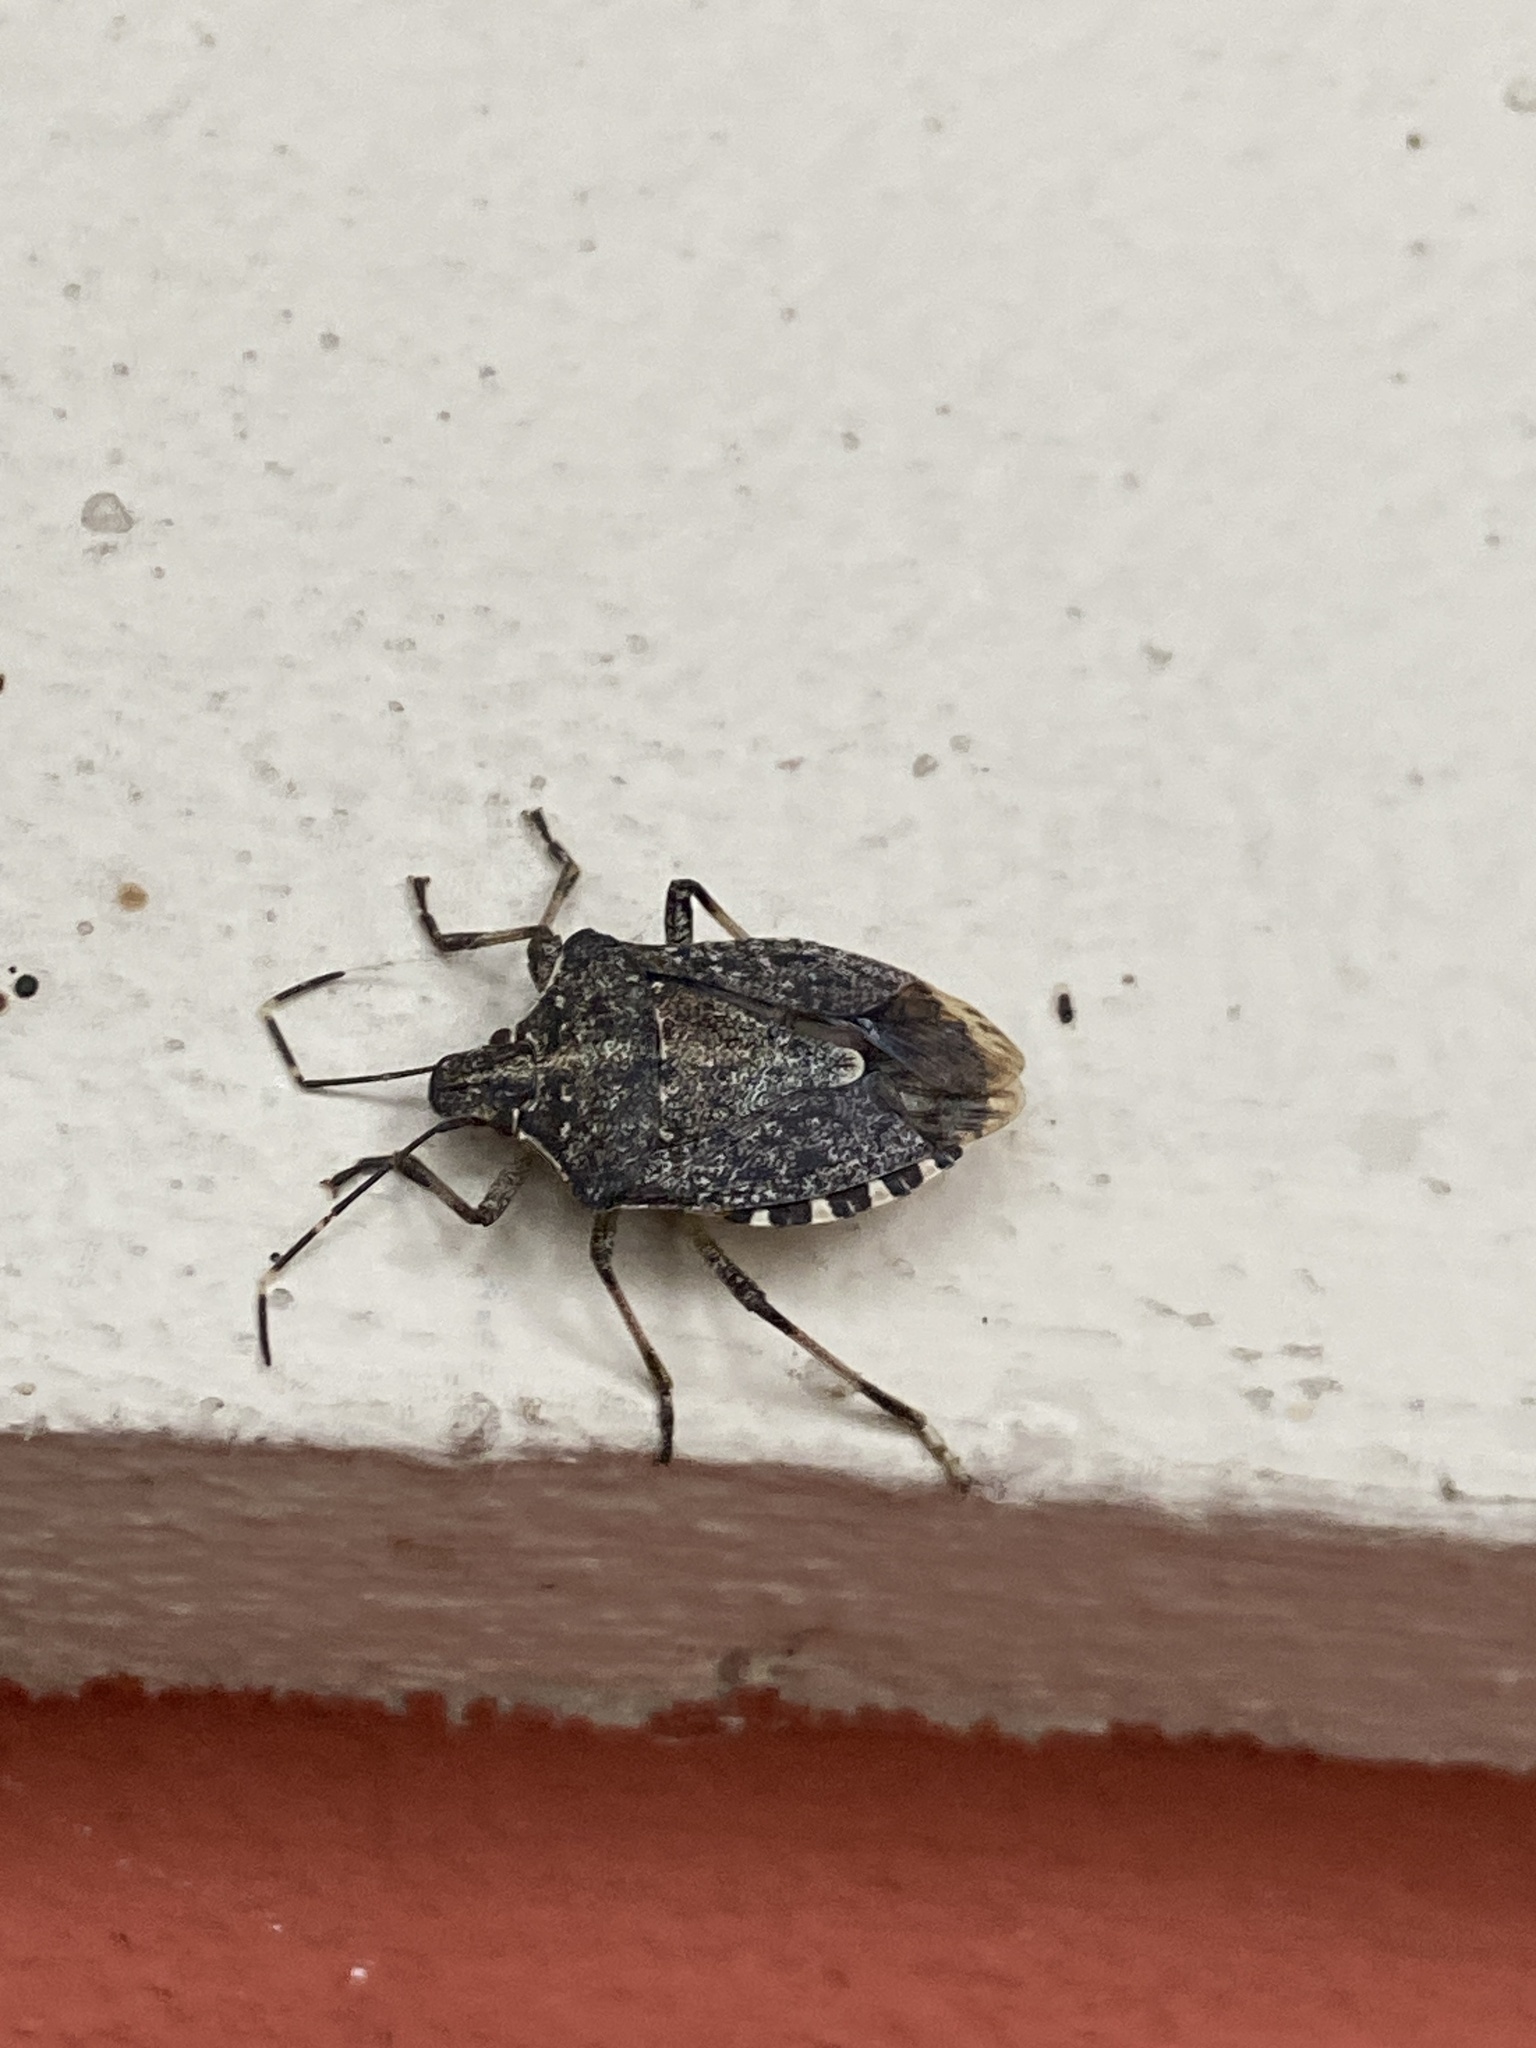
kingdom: Animalia
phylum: Arthropoda
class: Insecta
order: Hemiptera
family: Pentatomidae
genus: Halyomorpha
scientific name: Halyomorpha halys
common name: Brown marmorated stink bug
